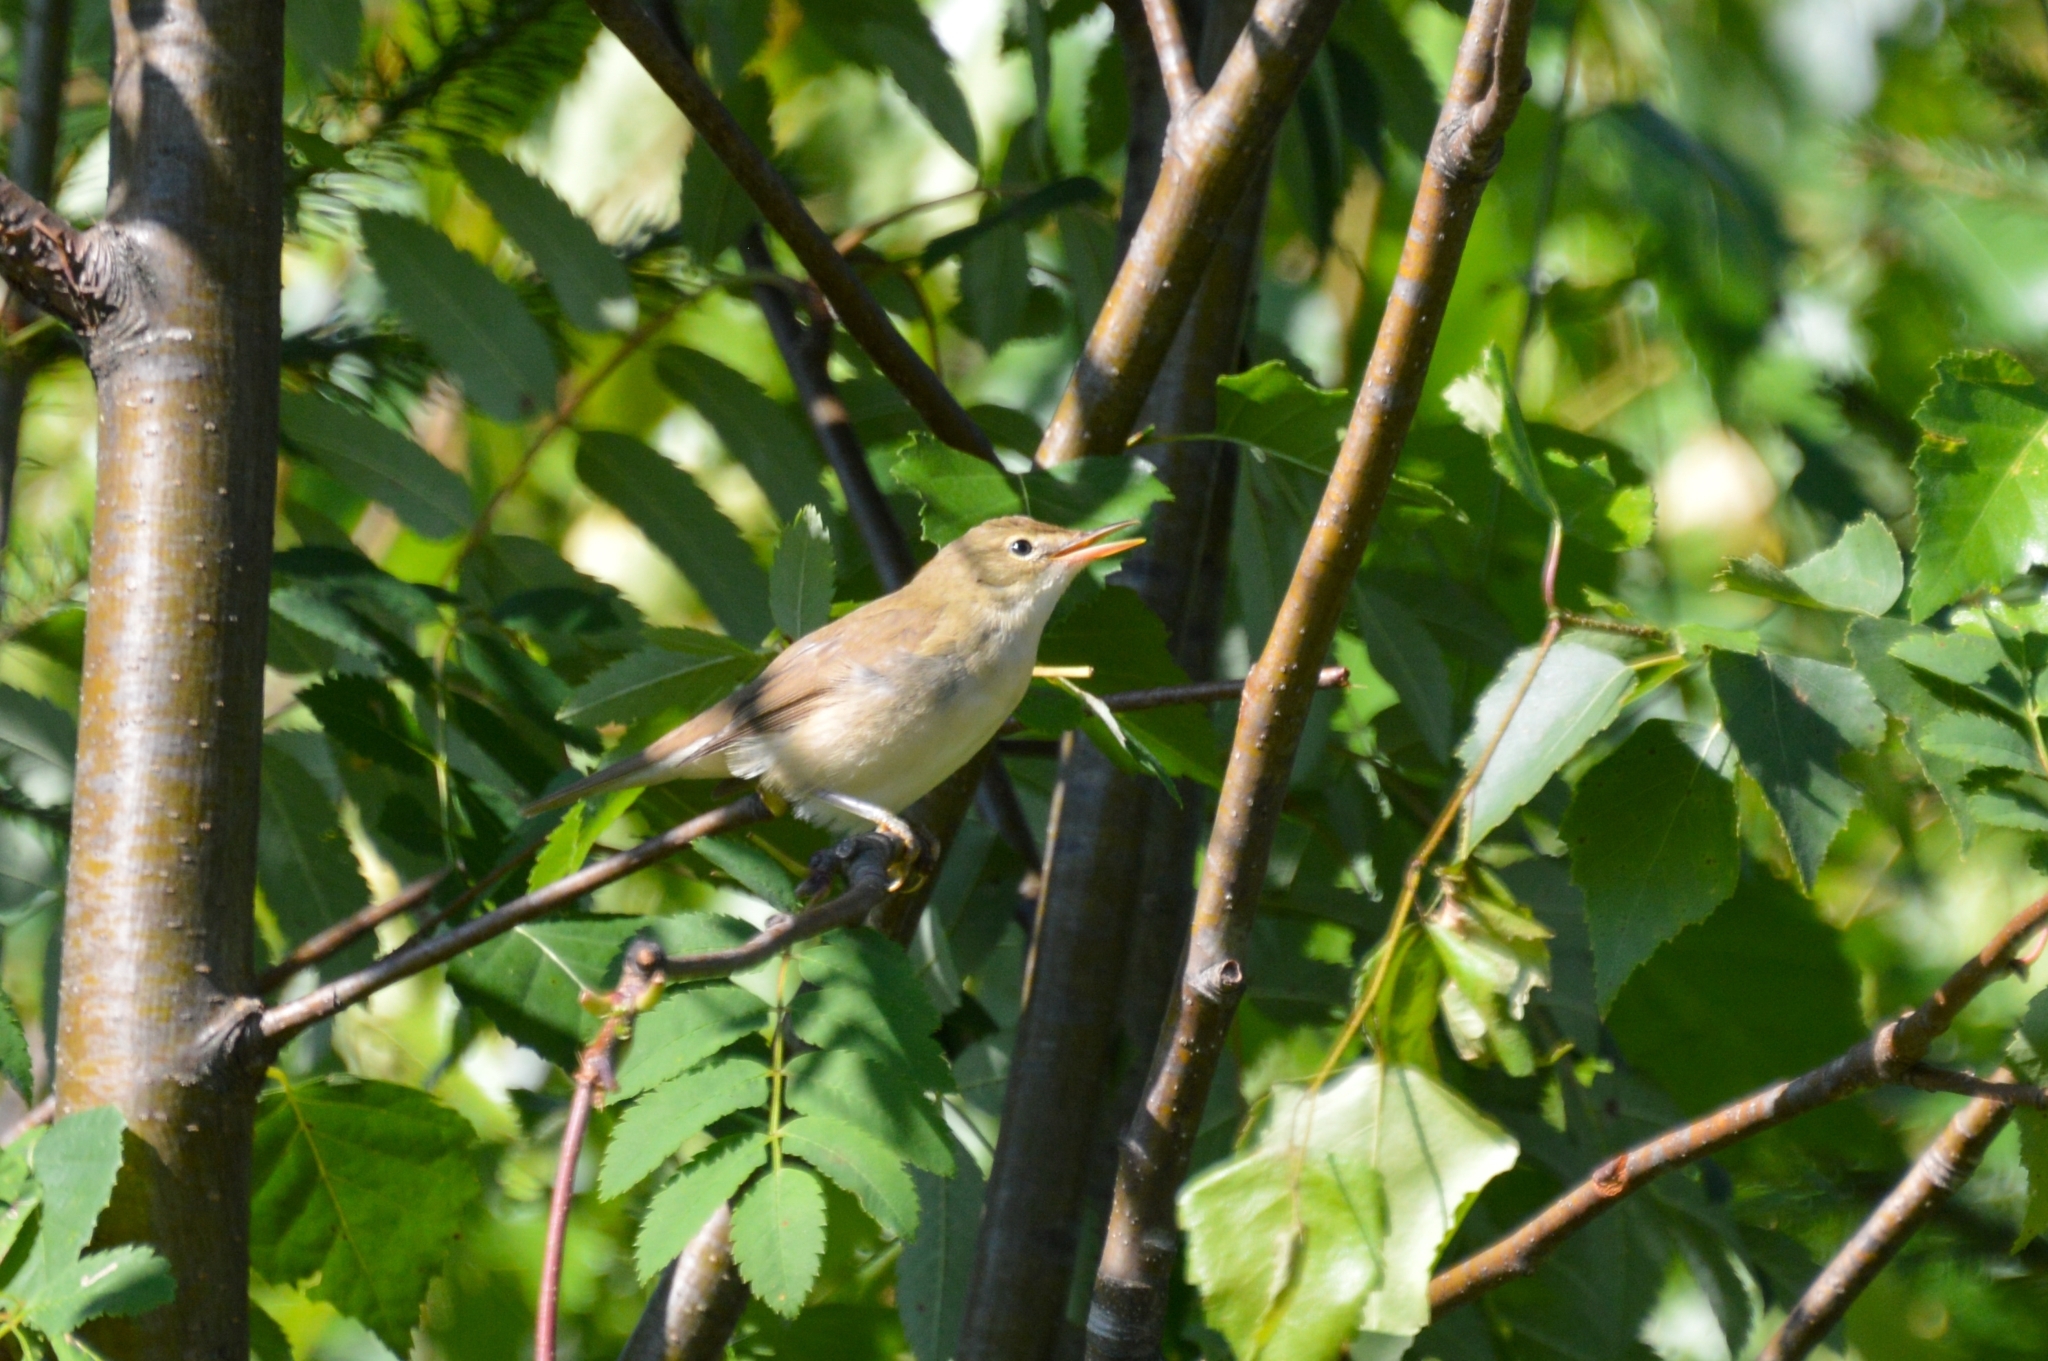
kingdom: Animalia
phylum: Chordata
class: Aves
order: Passeriformes
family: Acrocephalidae
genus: Acrocephalus
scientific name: Acrocephalus dumetorum
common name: Blyth's reed warbler
